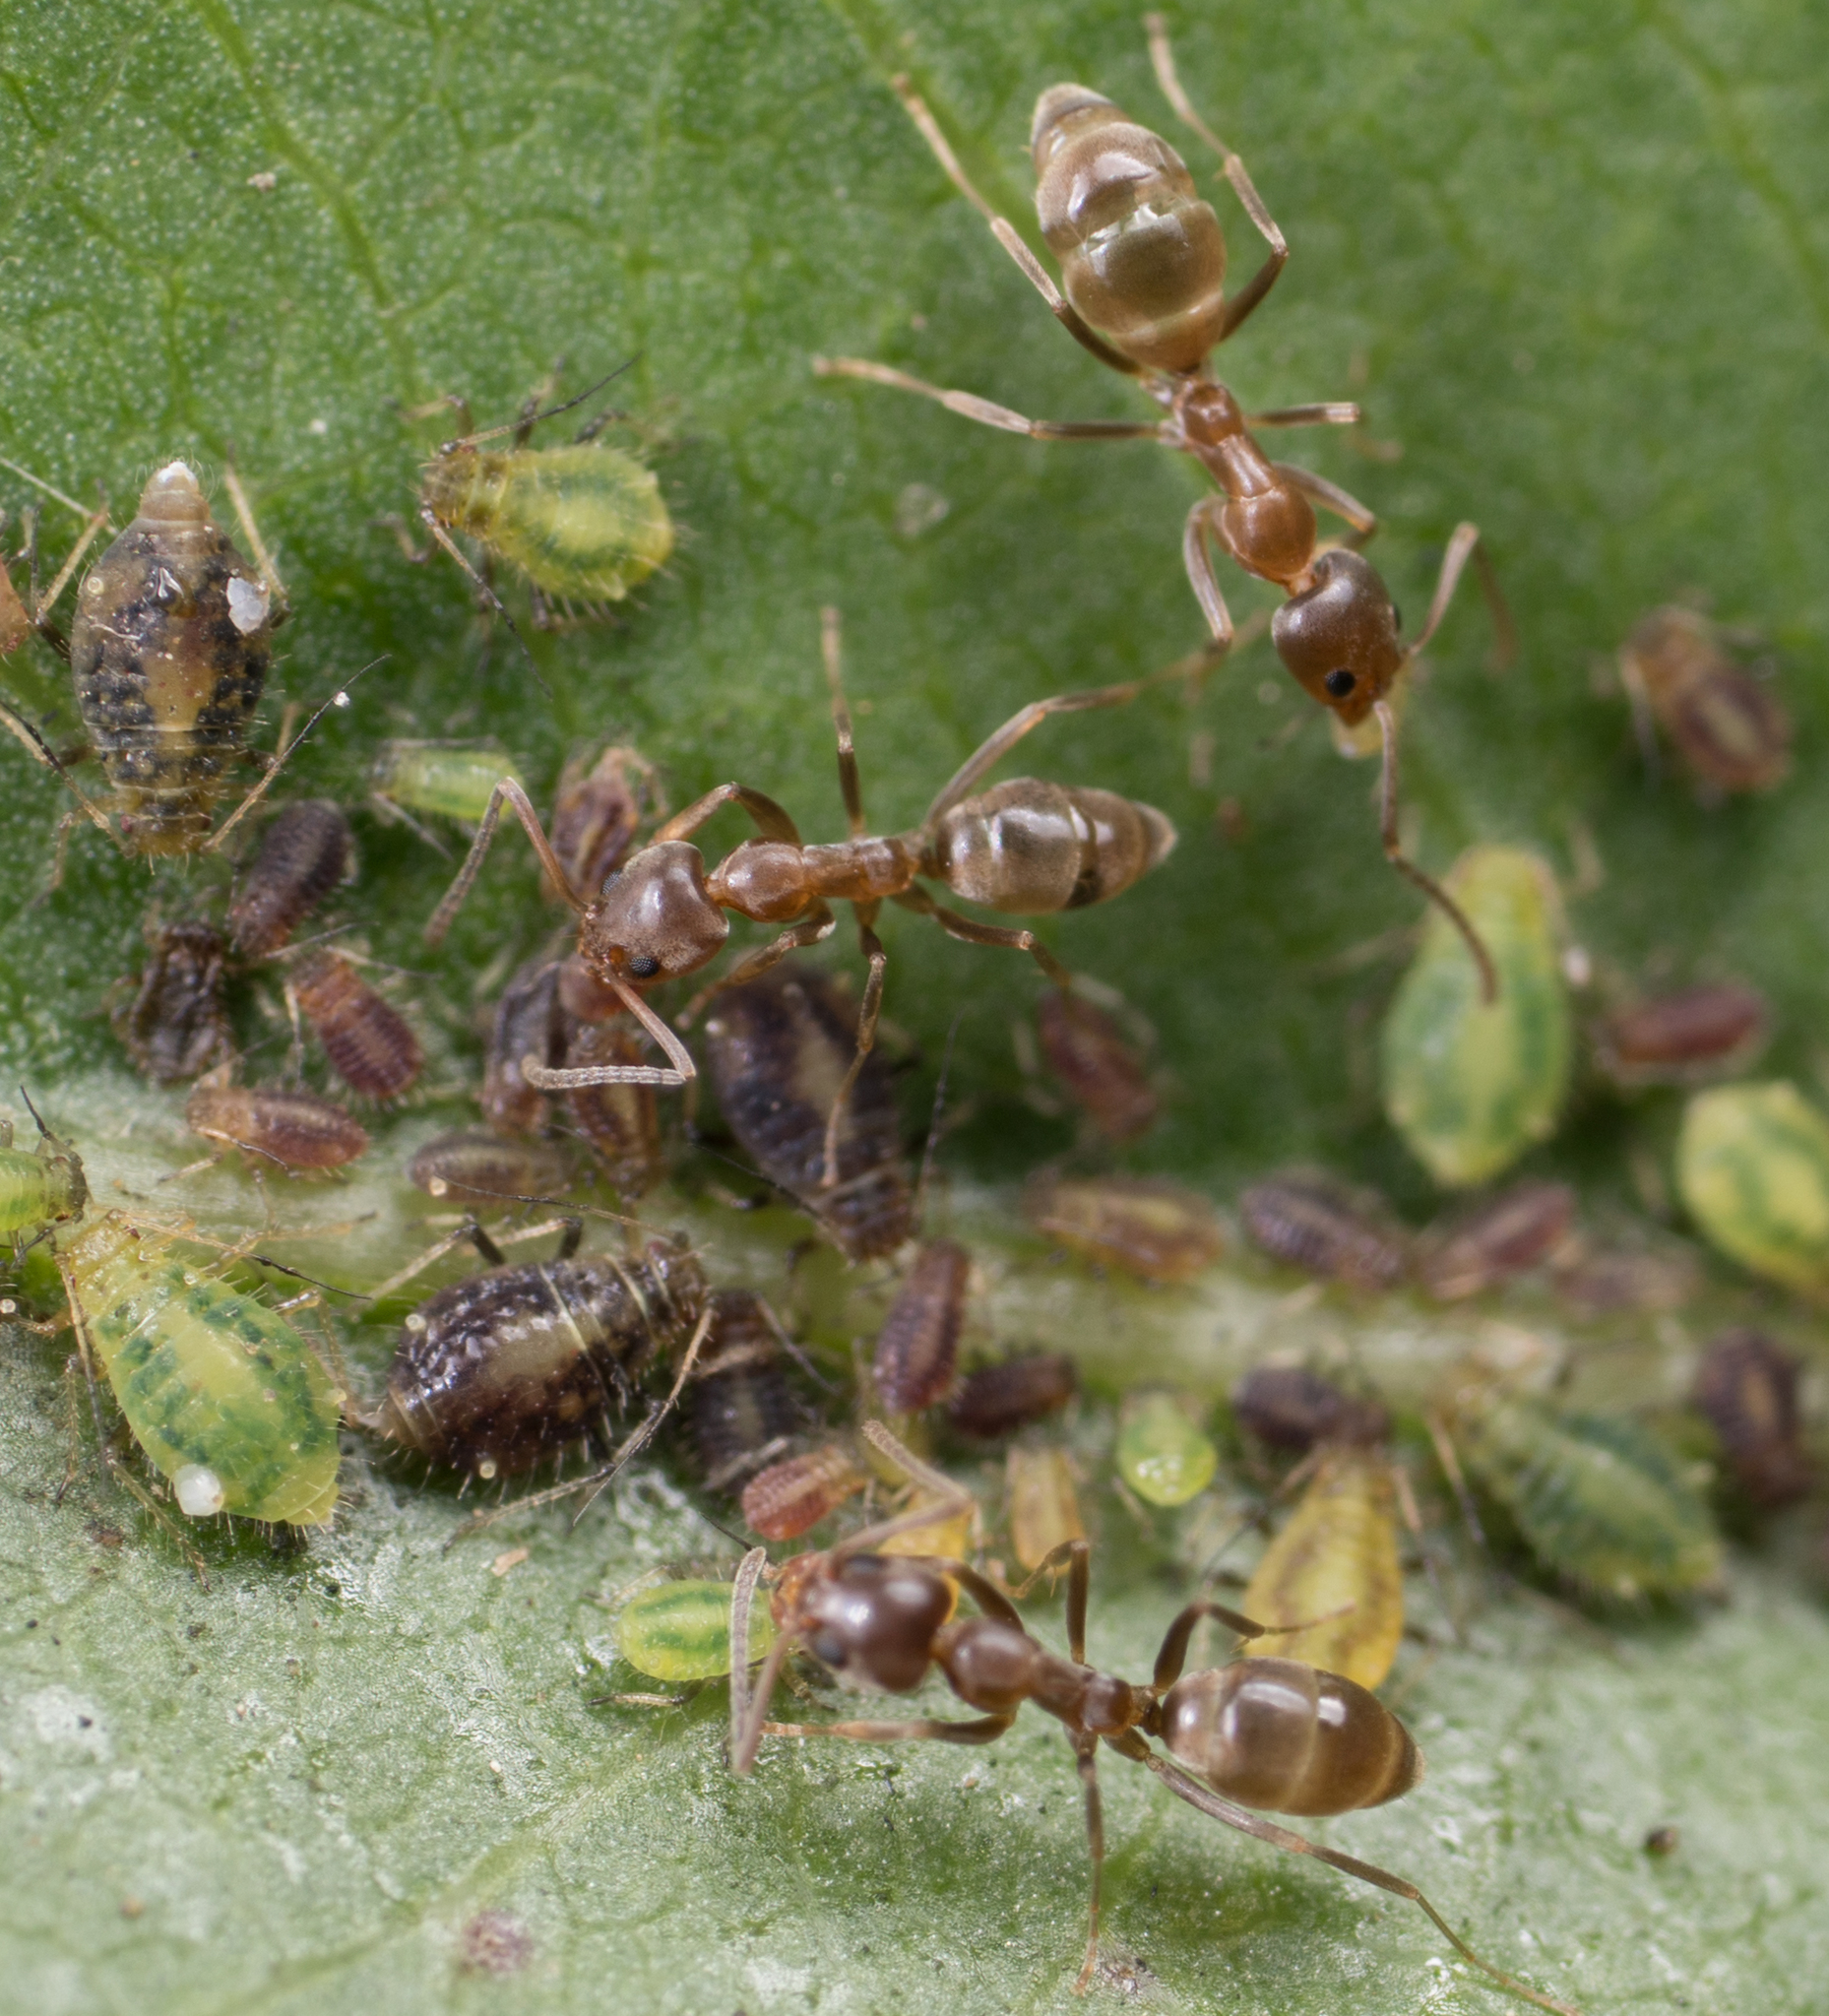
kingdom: Animalia
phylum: Arthropoda
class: Insecta
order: Hymenoptera
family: Formicidae
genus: Linepithema
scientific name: Linepithema humile
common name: Argentine ant
